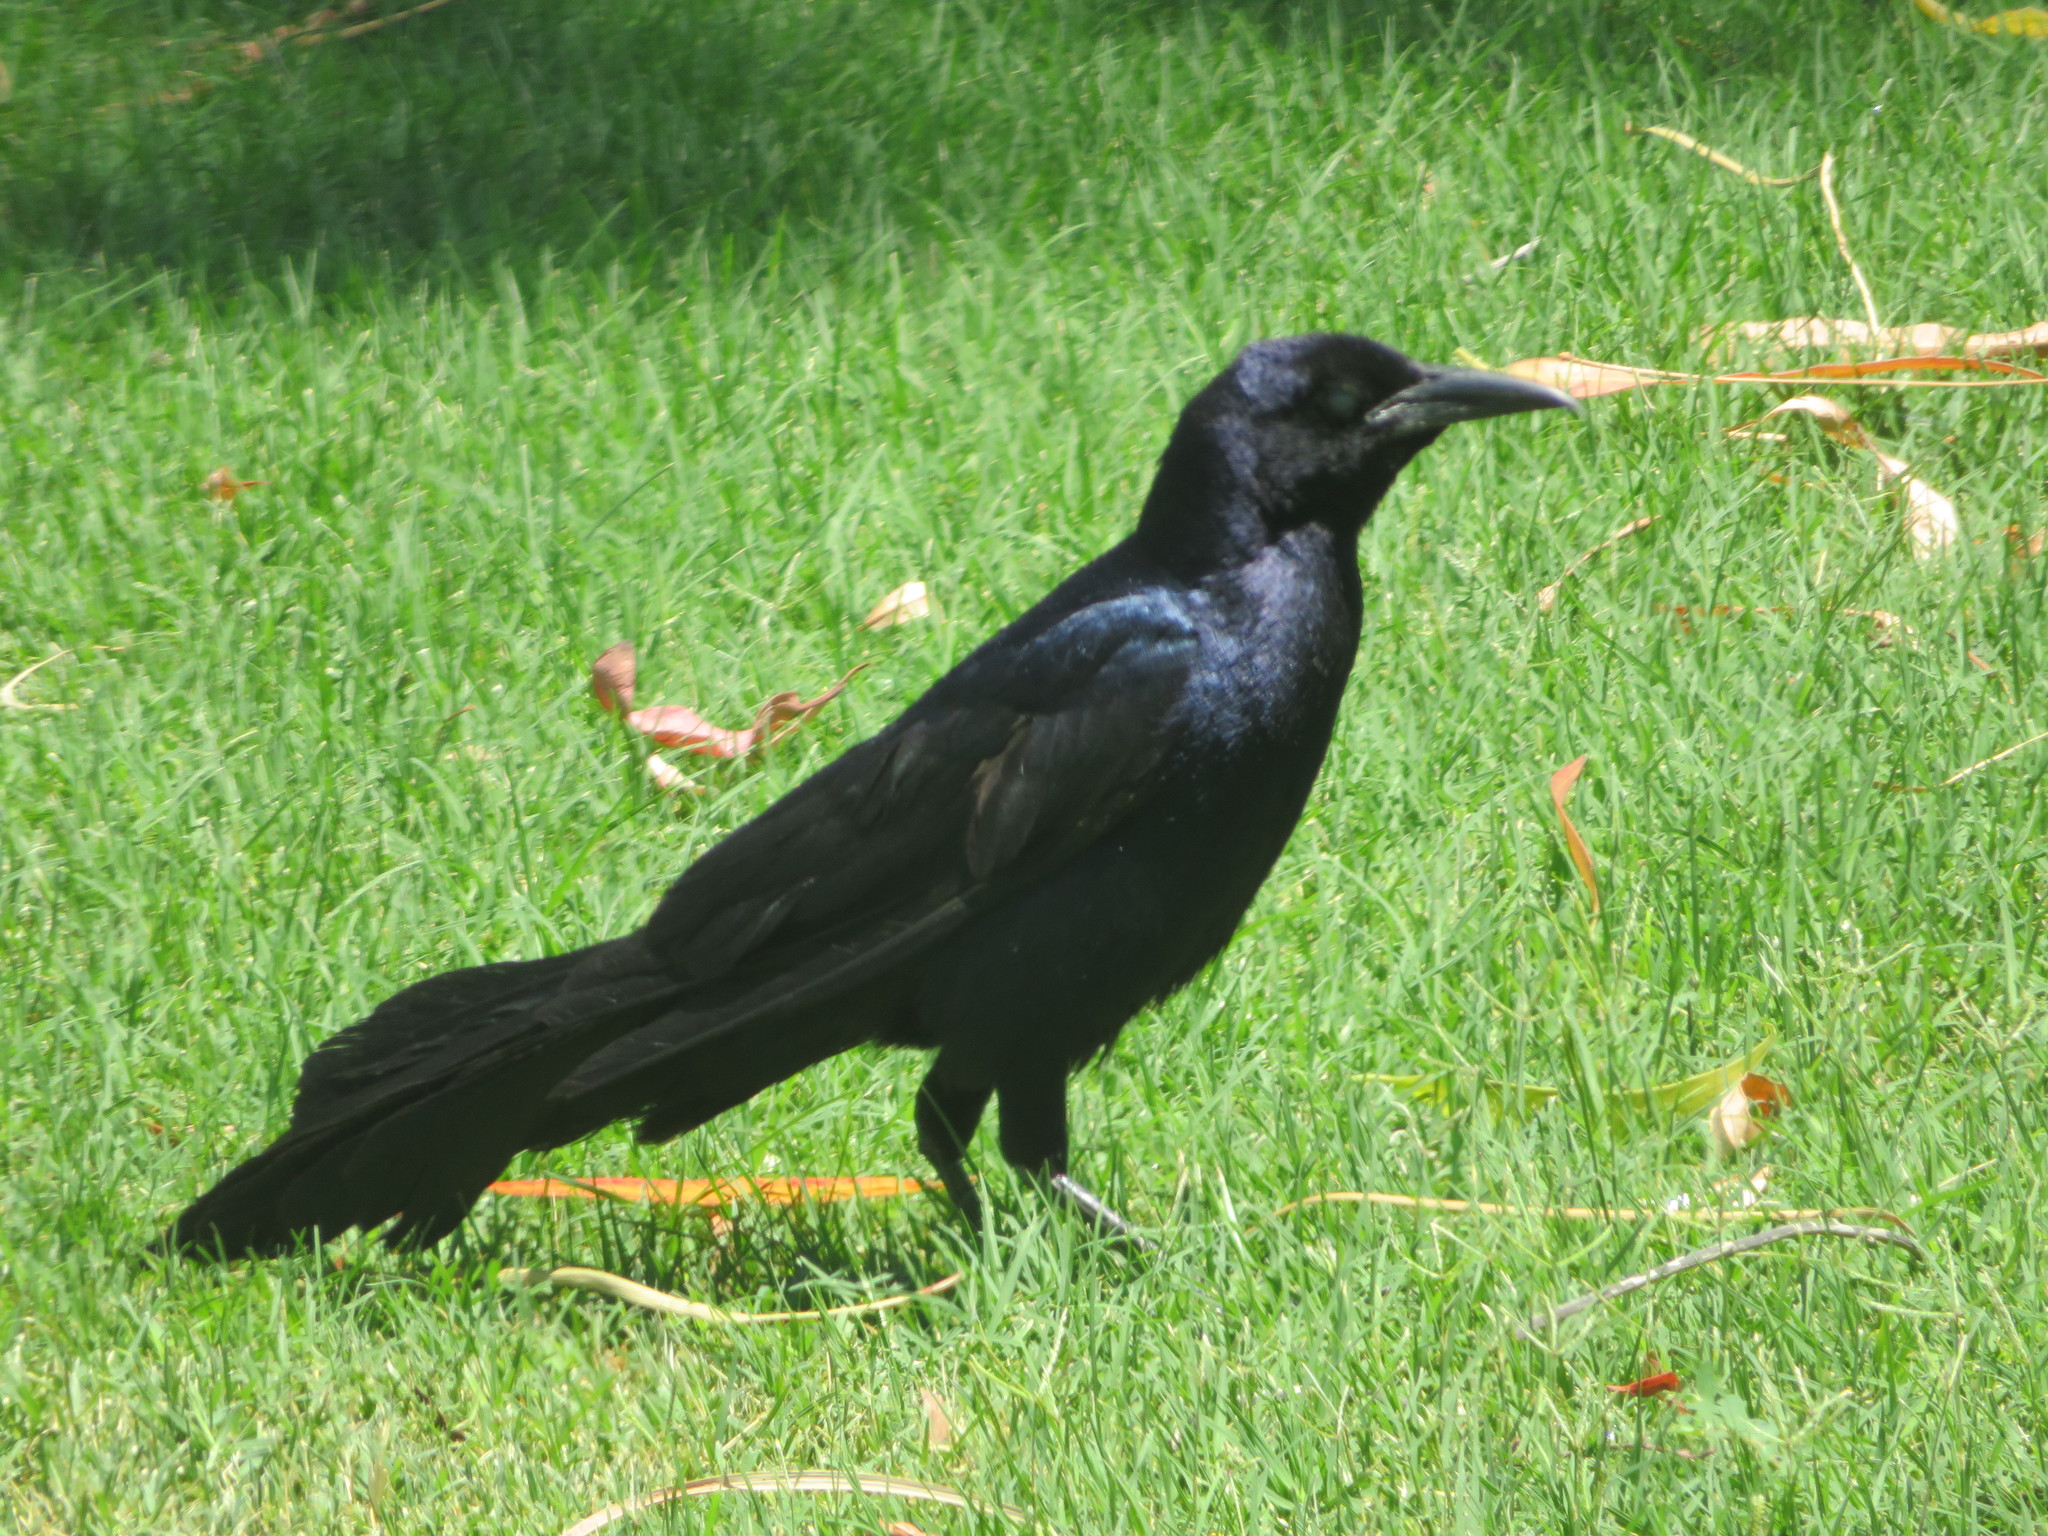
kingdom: Animalia
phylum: Chordata
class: Aves
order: Passeriformes
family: Icteridae
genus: Quiscalus
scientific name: Quiscalus mexicanus
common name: Great-tailed grackle
